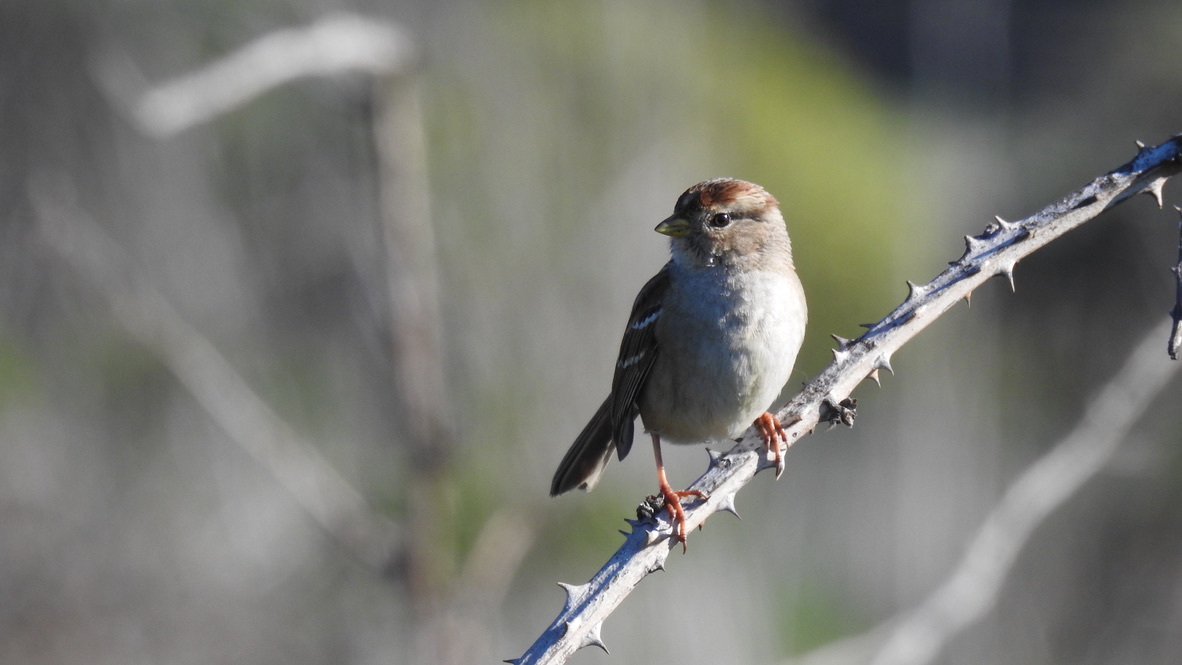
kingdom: Animalia
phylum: Chordata
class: Aves
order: Passeriformes
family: Passerellidae
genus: Zonotrichia
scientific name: Zonotrichia leucophrys
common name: White-crowned sparrow
